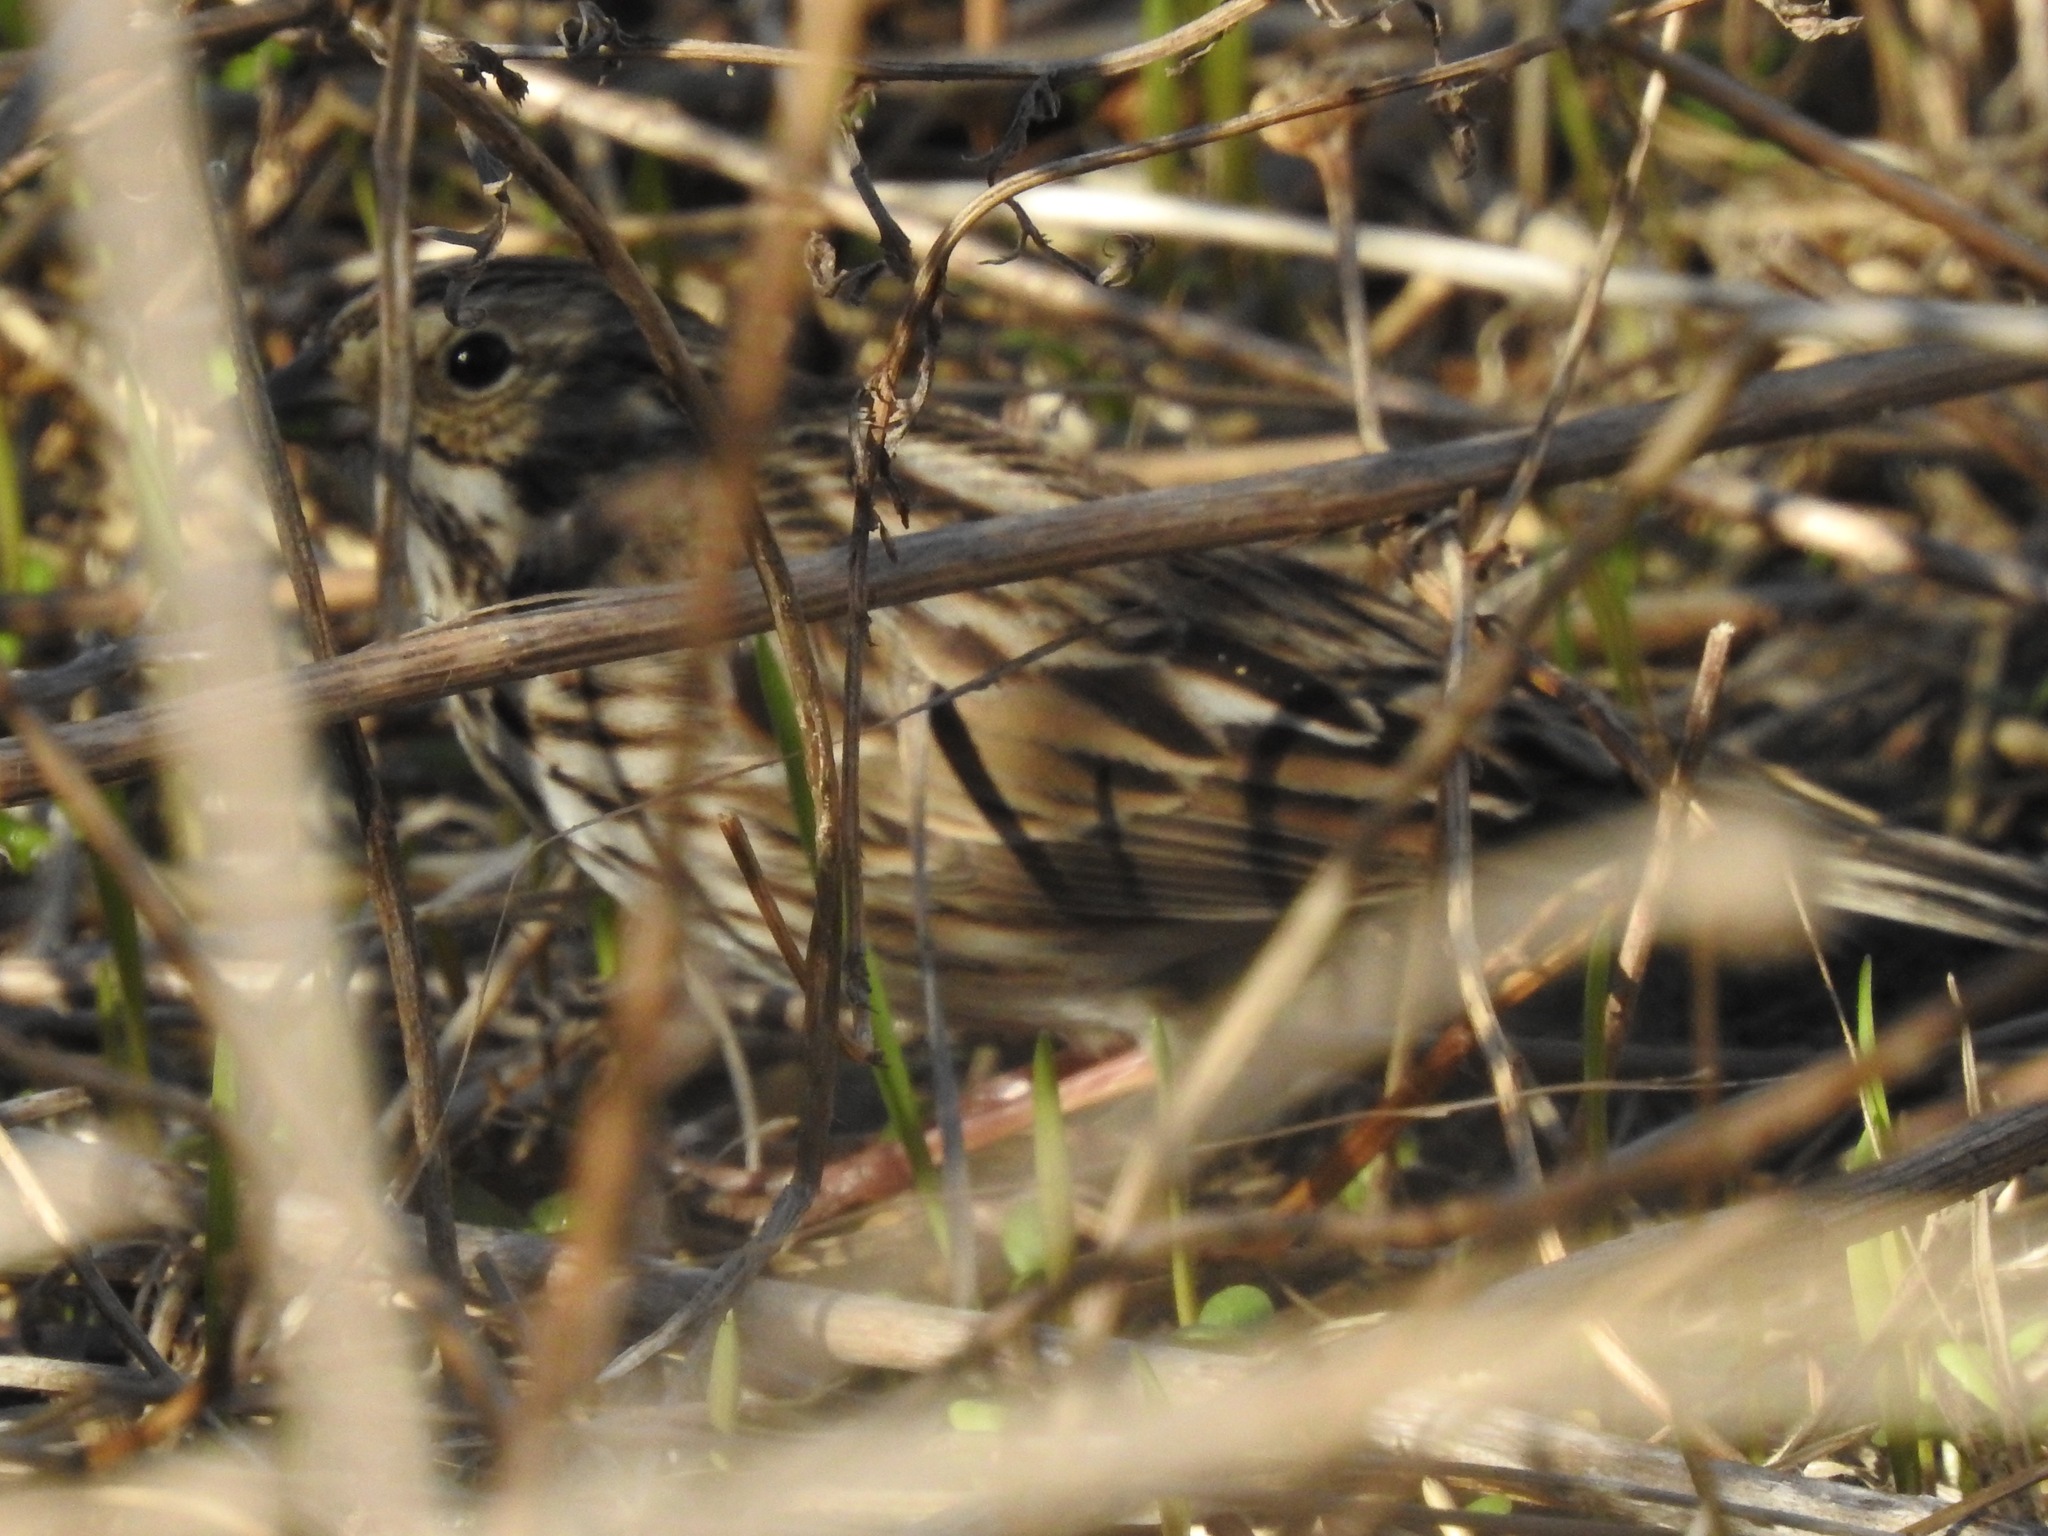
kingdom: Animalia
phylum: Chordata
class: Aves
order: Passeriformes
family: Passerellidae
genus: Passerculus
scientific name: Passerculus sandwichensis
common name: Savannah sparrow
